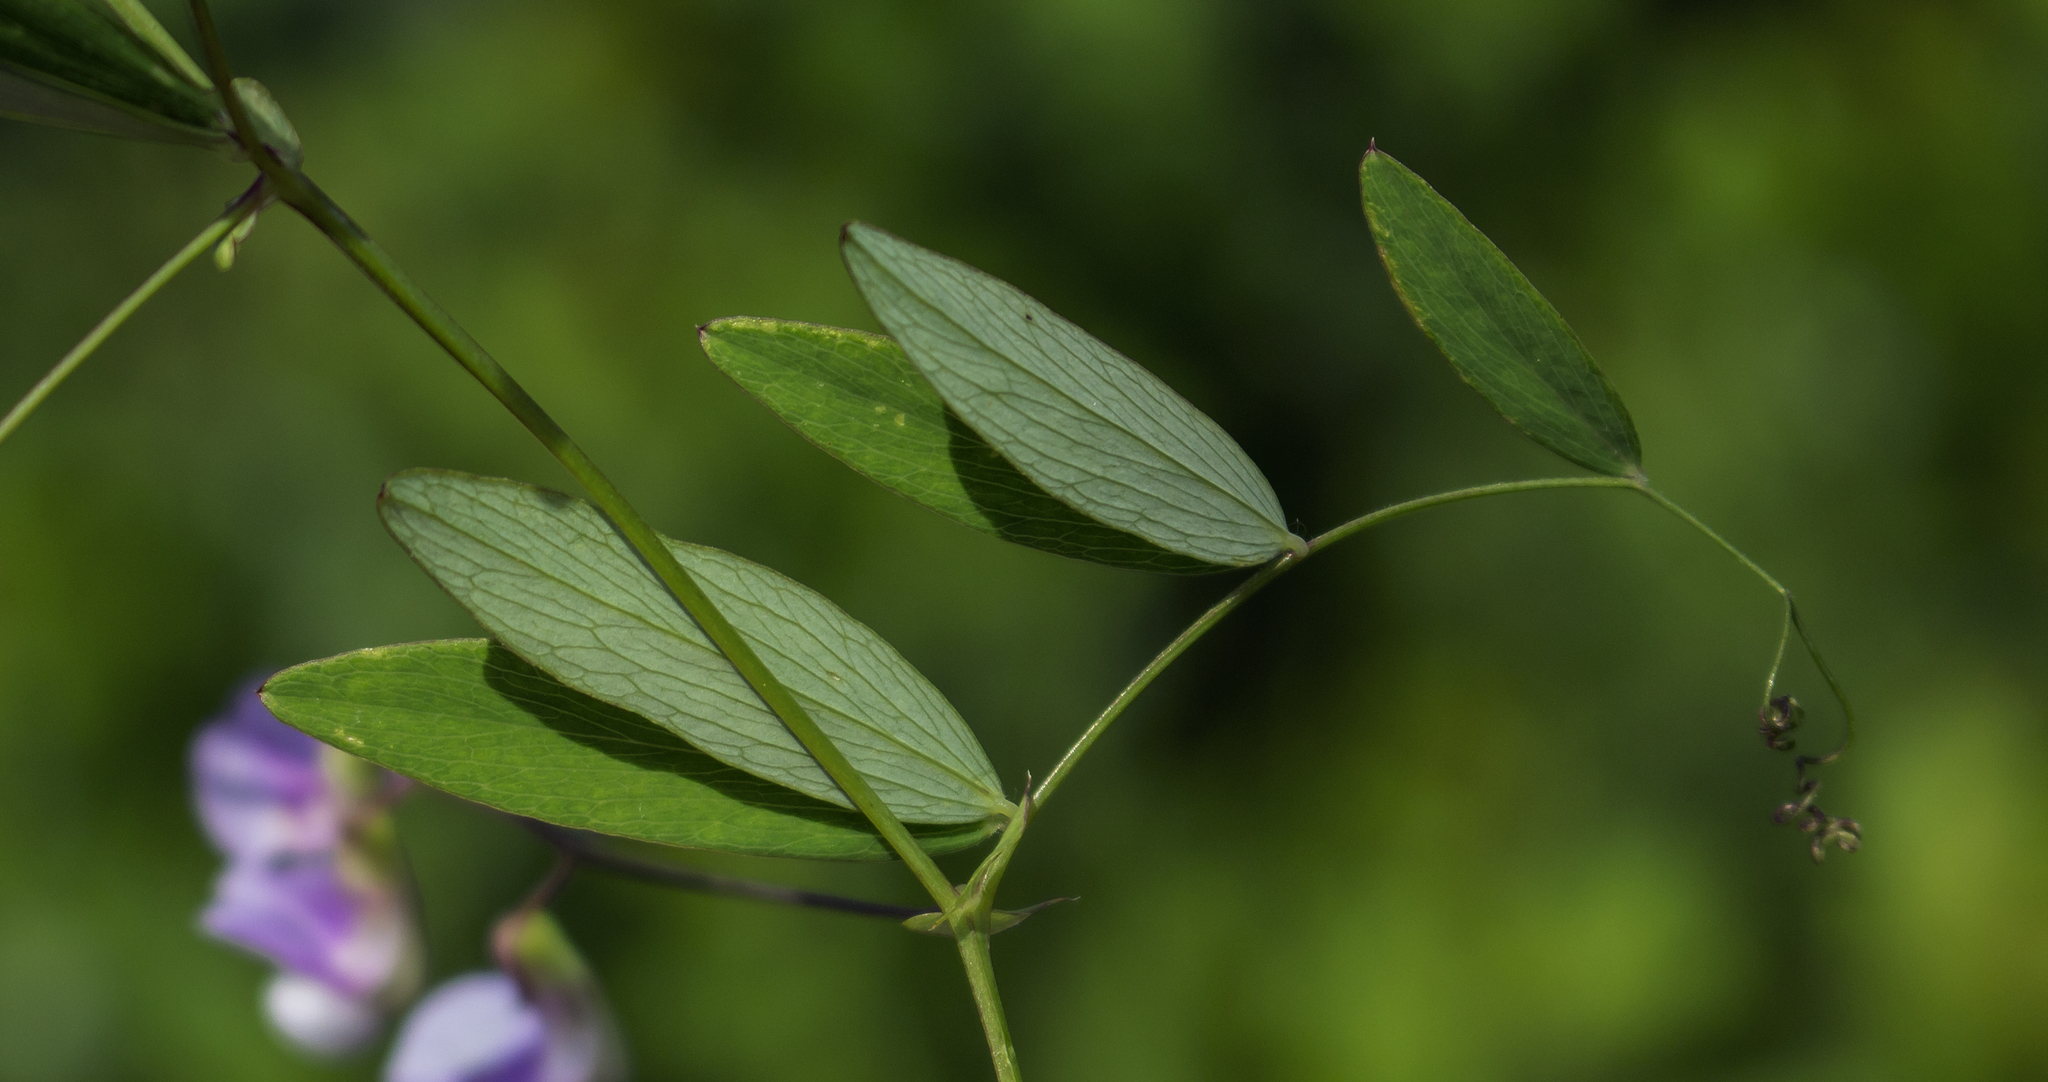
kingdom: Plantae
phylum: Tracheophyta
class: Magnoliopsida
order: Fabales
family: Fabaceae
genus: Lathyrus
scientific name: Lathyrus palustris
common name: Marsh pea
